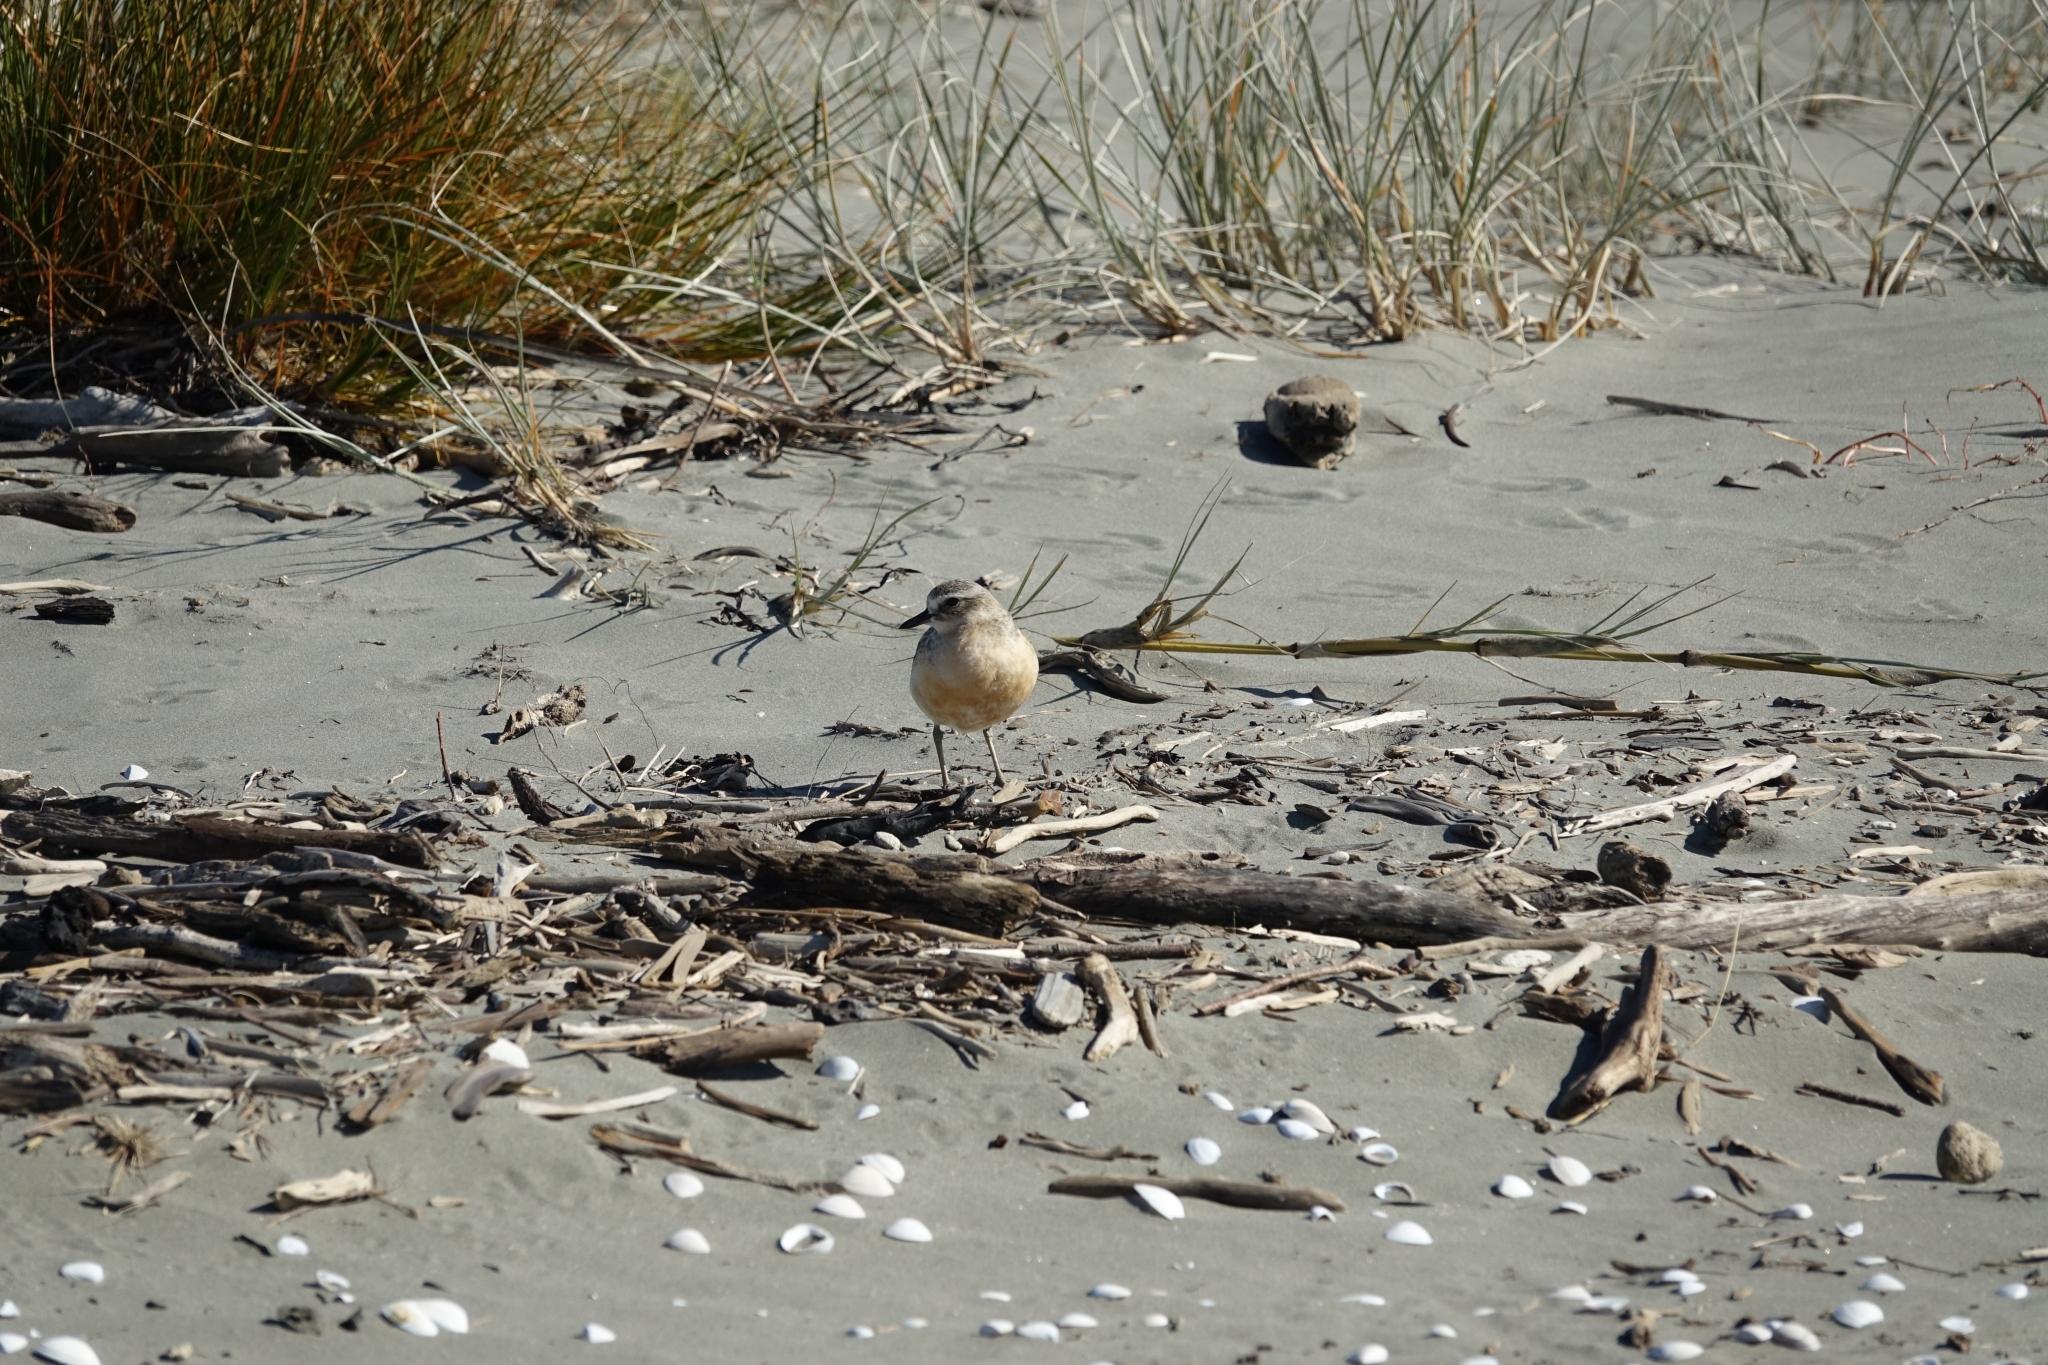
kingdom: Animalia
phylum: Chordata
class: Aves
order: Charadriiformes
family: Charadriidae
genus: Anarhynchus
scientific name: Anarhynchus
